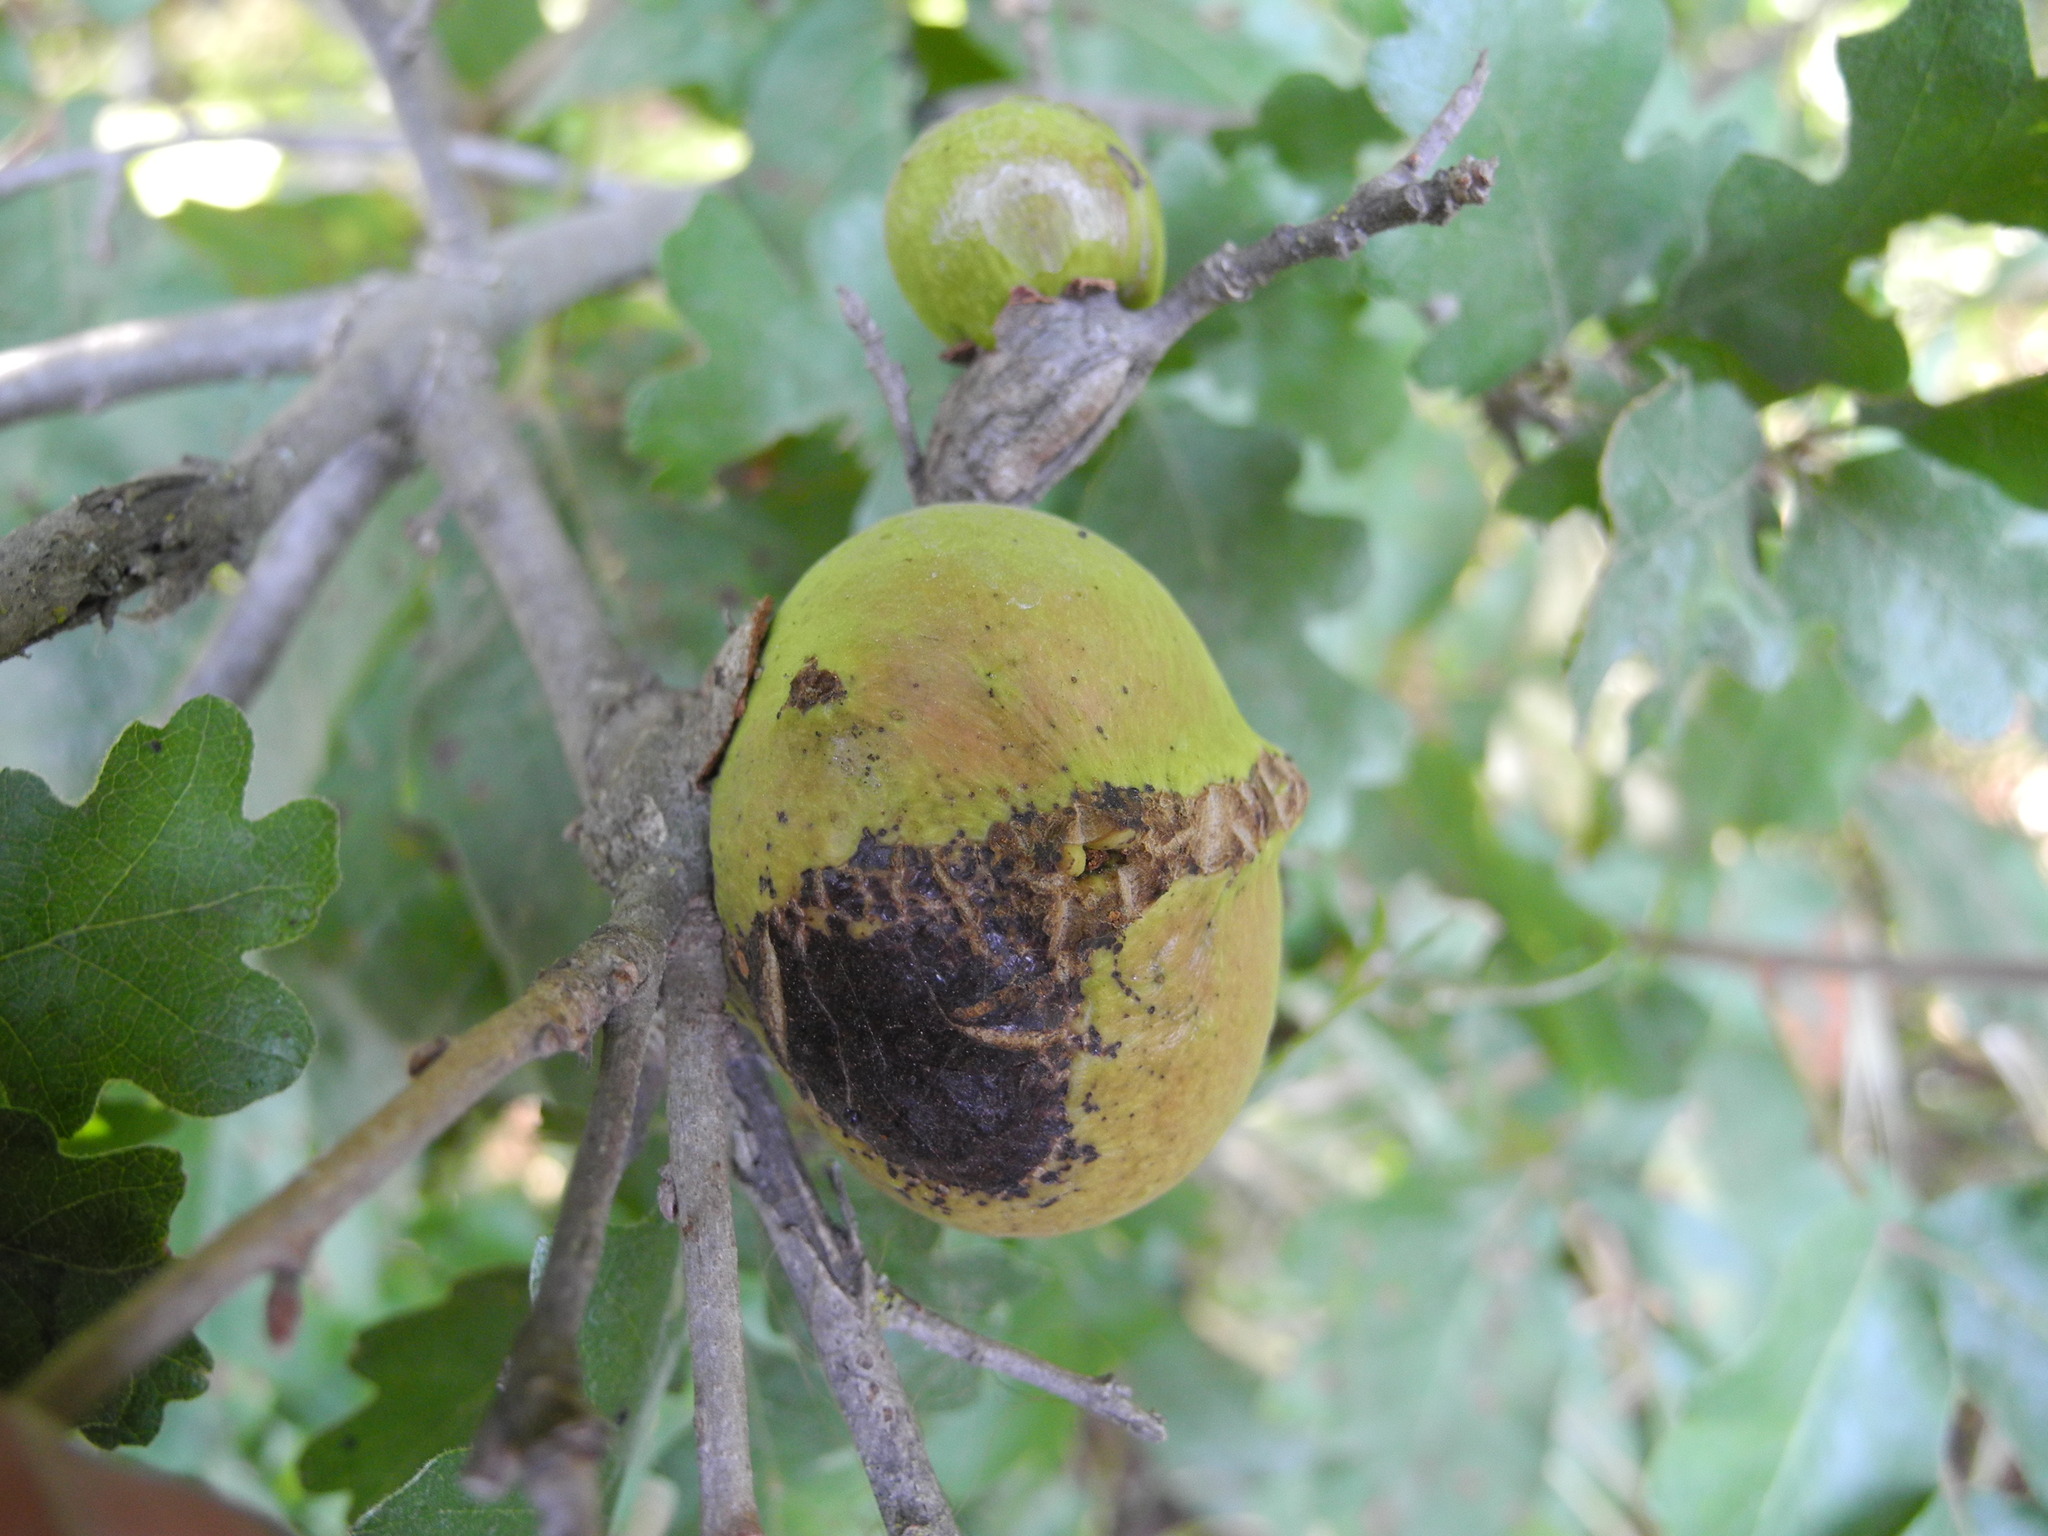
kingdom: Animalia
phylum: Arthropoda
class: Insecta
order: Hymenoptera
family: Cynipidae
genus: Andricus
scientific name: Andricus quercuscalifornicus
